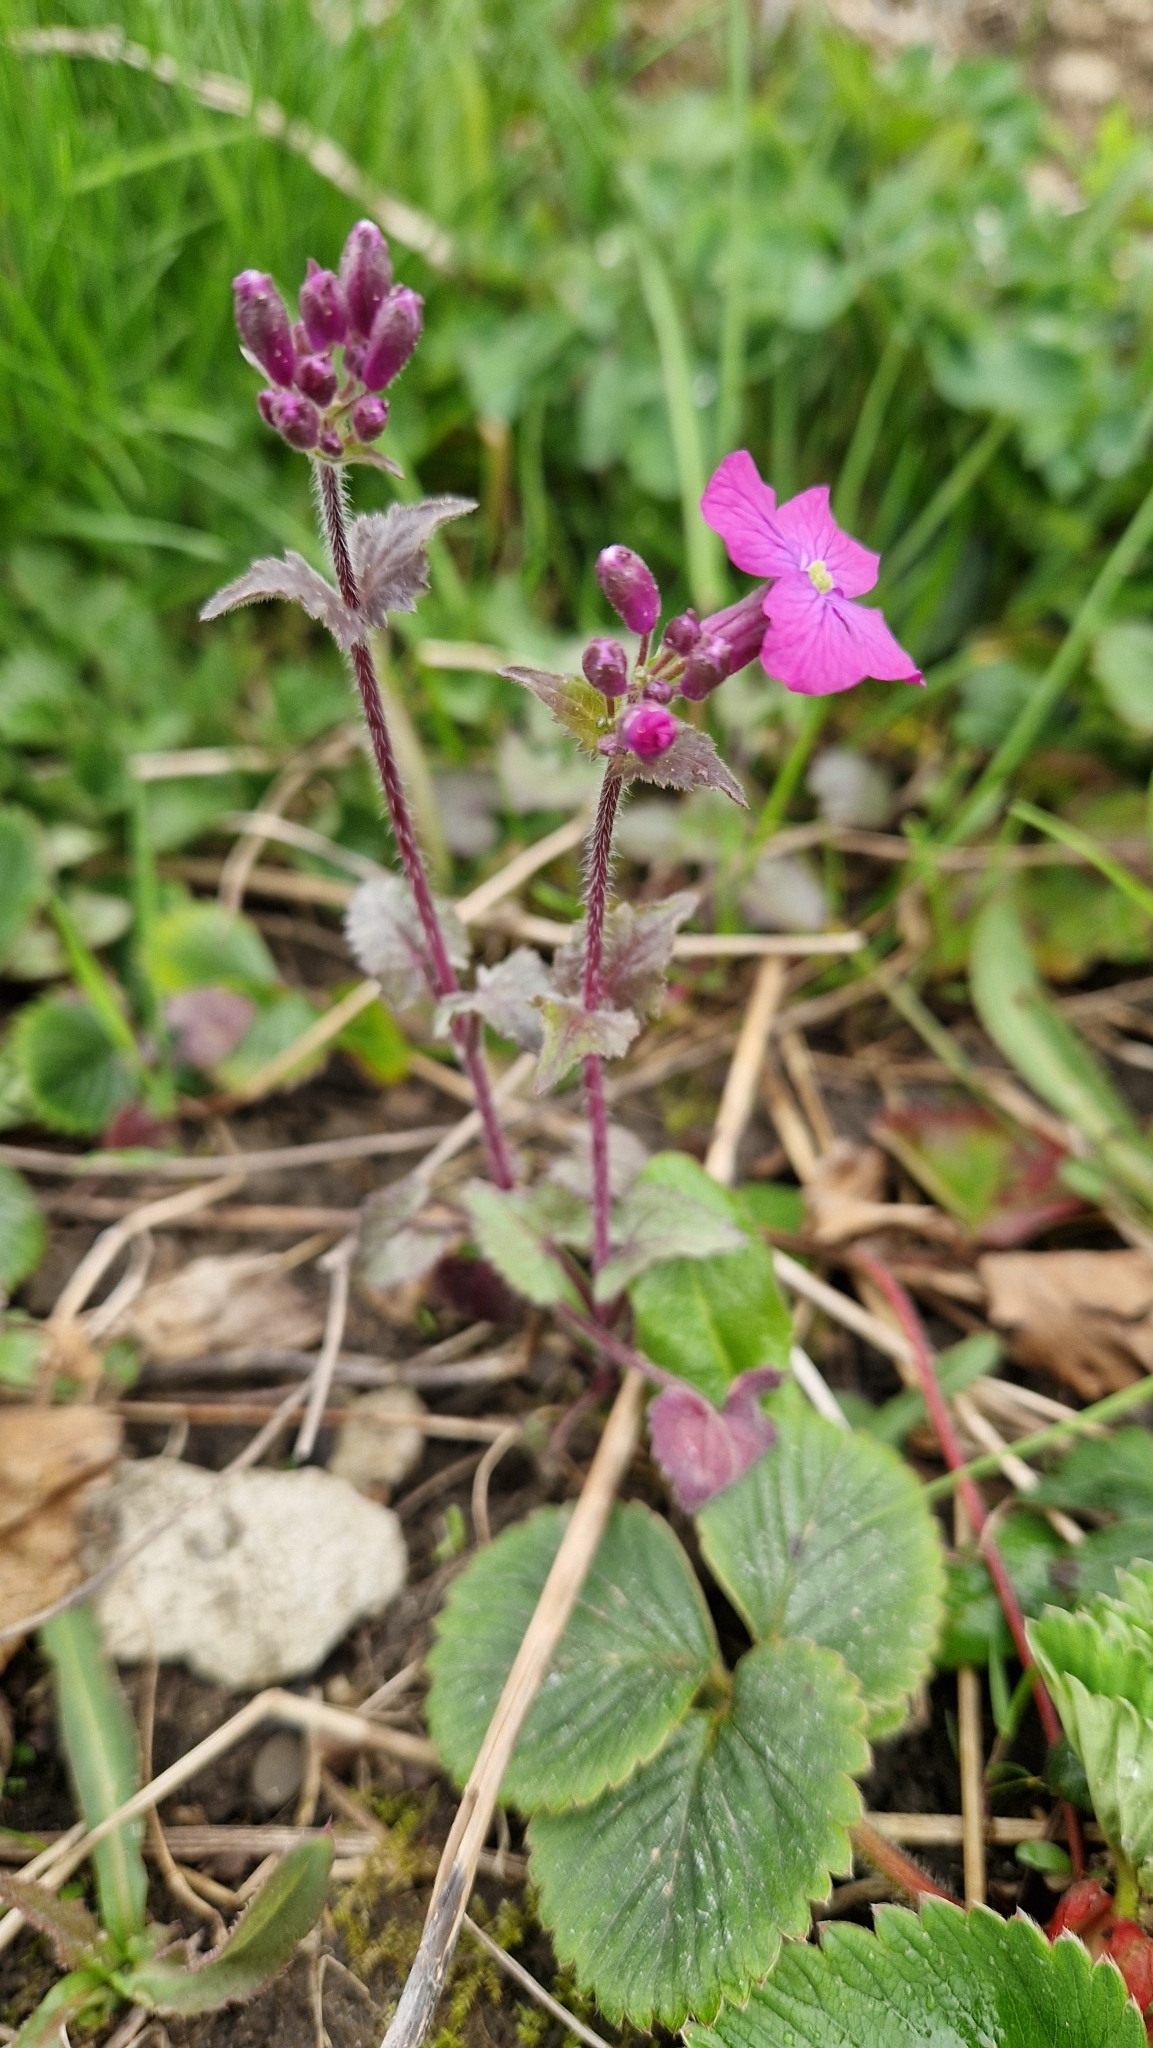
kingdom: Plantae
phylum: Tracheophyta
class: Magnoliopsida
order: Brassicales
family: Brassicaceae
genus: Lunaria
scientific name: Lunaria annua
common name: Honesty
